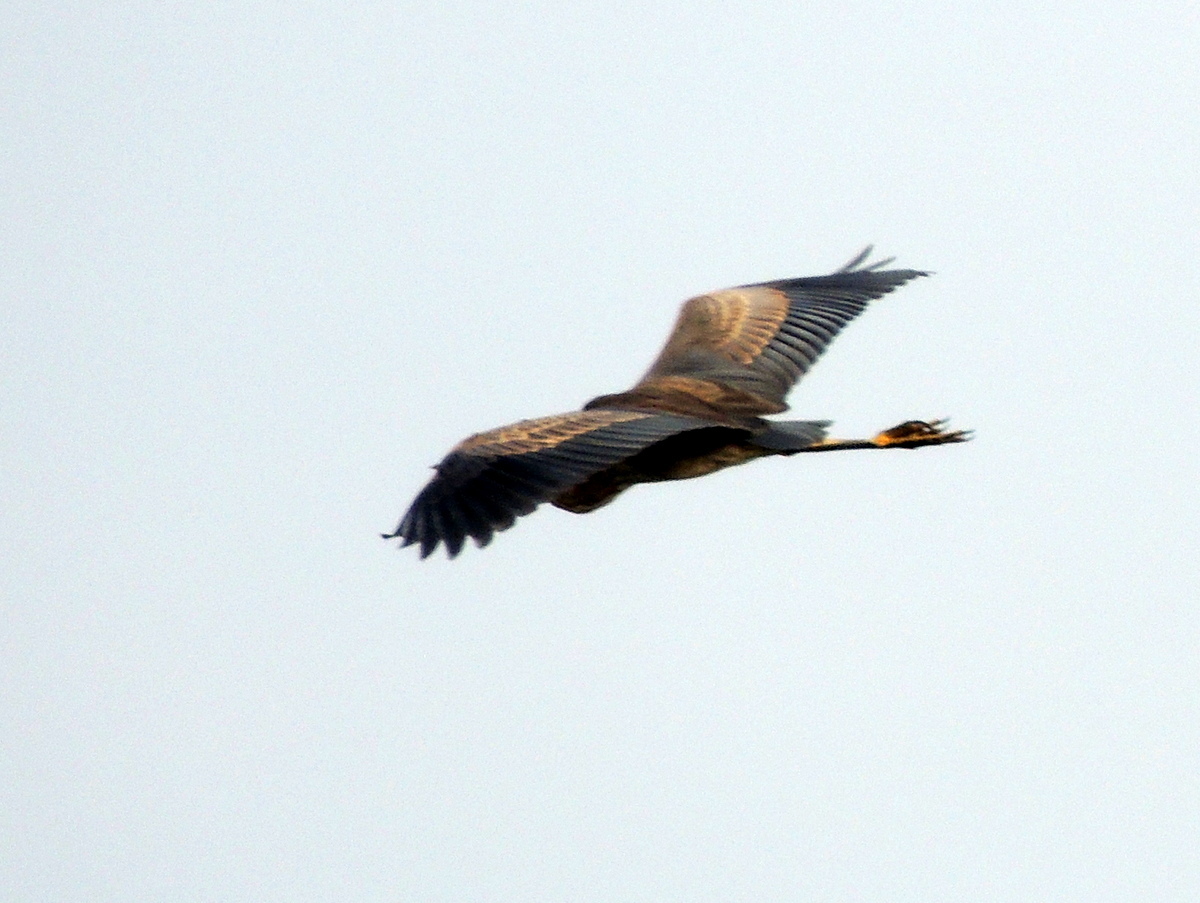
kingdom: Animalia
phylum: Chordata
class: Aves
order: Pelecaniformes
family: Ardeidae
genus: Ardea
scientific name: Ardea purpurea
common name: Purple heron
